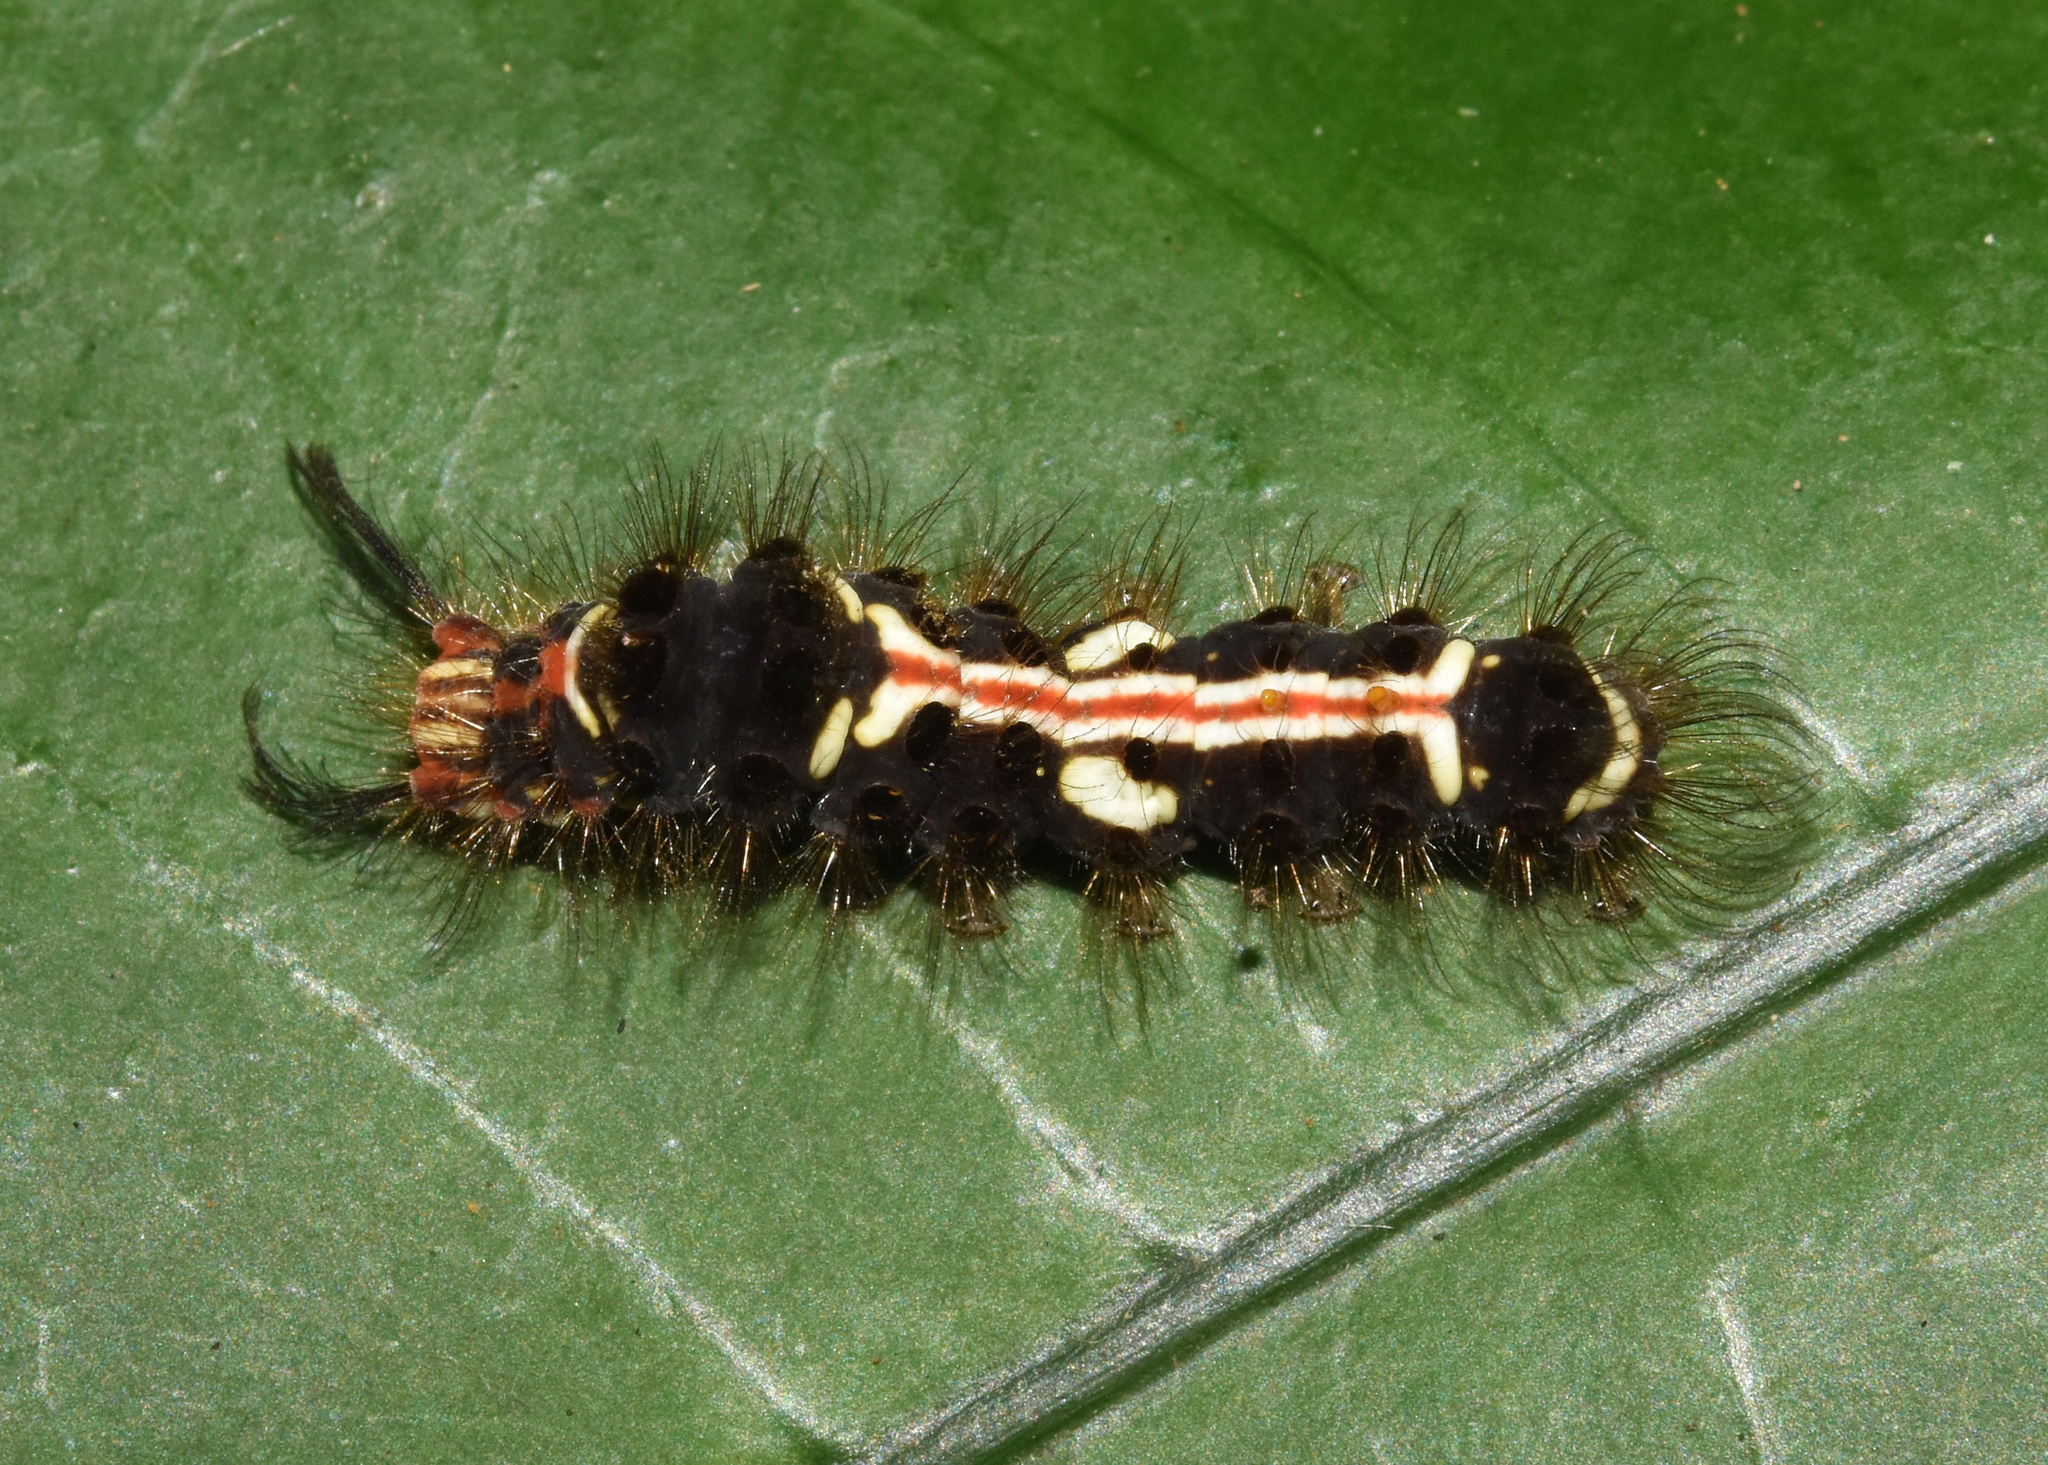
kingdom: Animalia
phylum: Arthropoda
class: Insecta
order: Lepidoptera
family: Erebidae
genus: Euproctis
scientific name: Euproctis aethiopica
